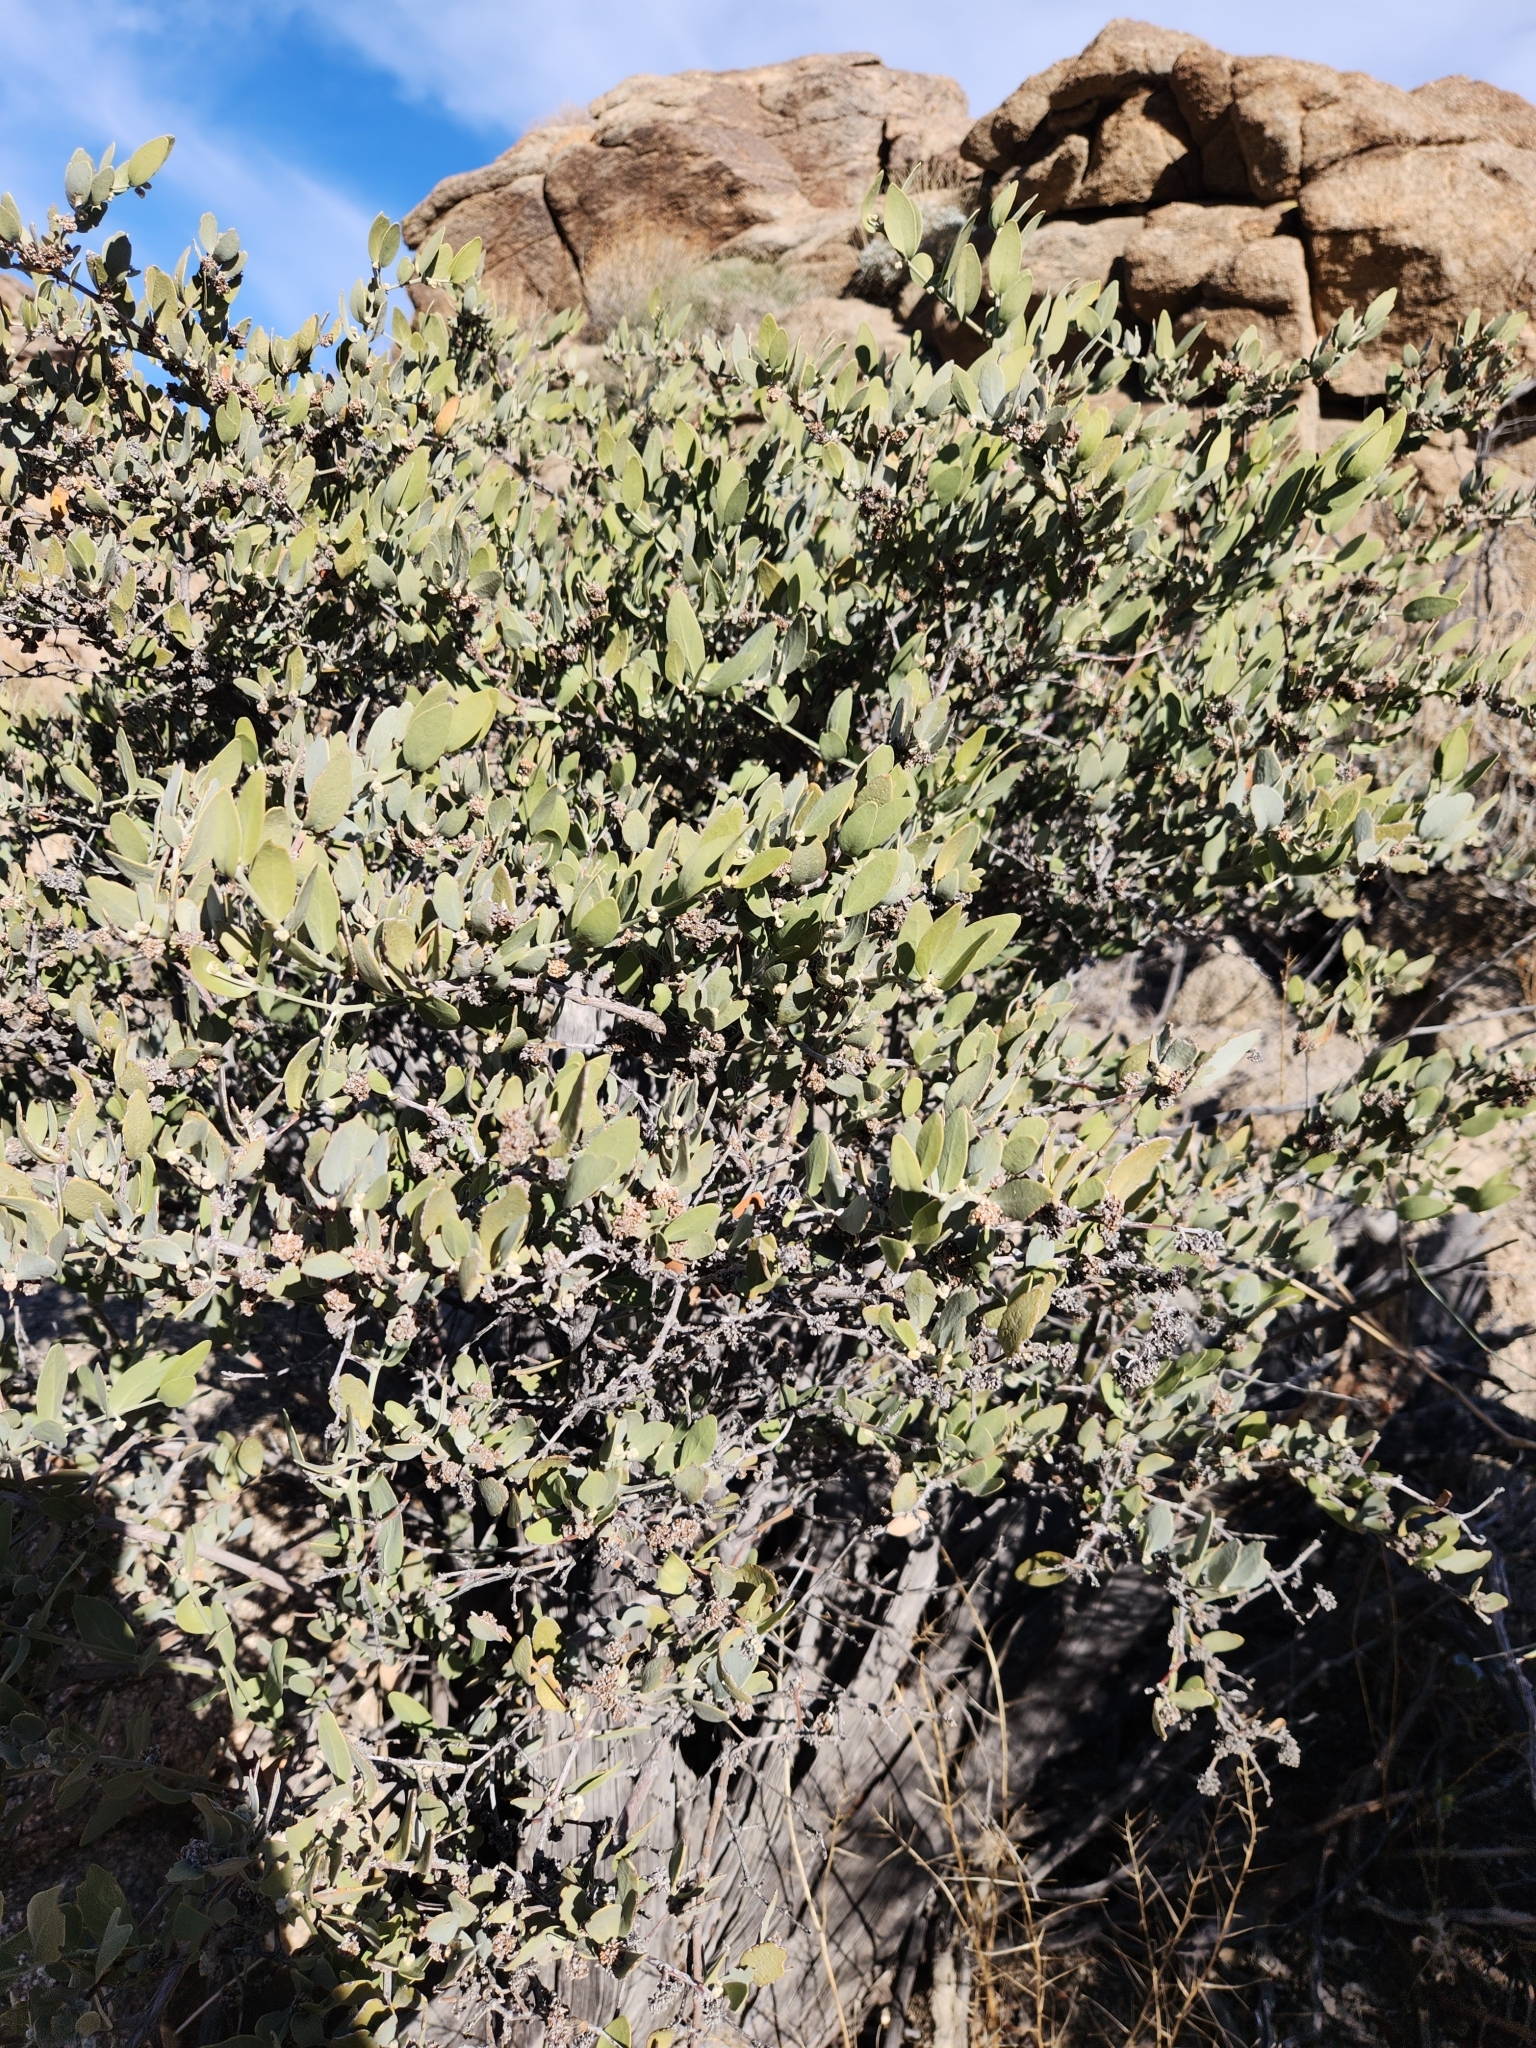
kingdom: Plantae
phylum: Tracheophyta
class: Magnoliopsida
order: Caryophyllales
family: Simmondsiaceae
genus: Simmondsia
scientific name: Simmondsia chinensis
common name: Jojoba
